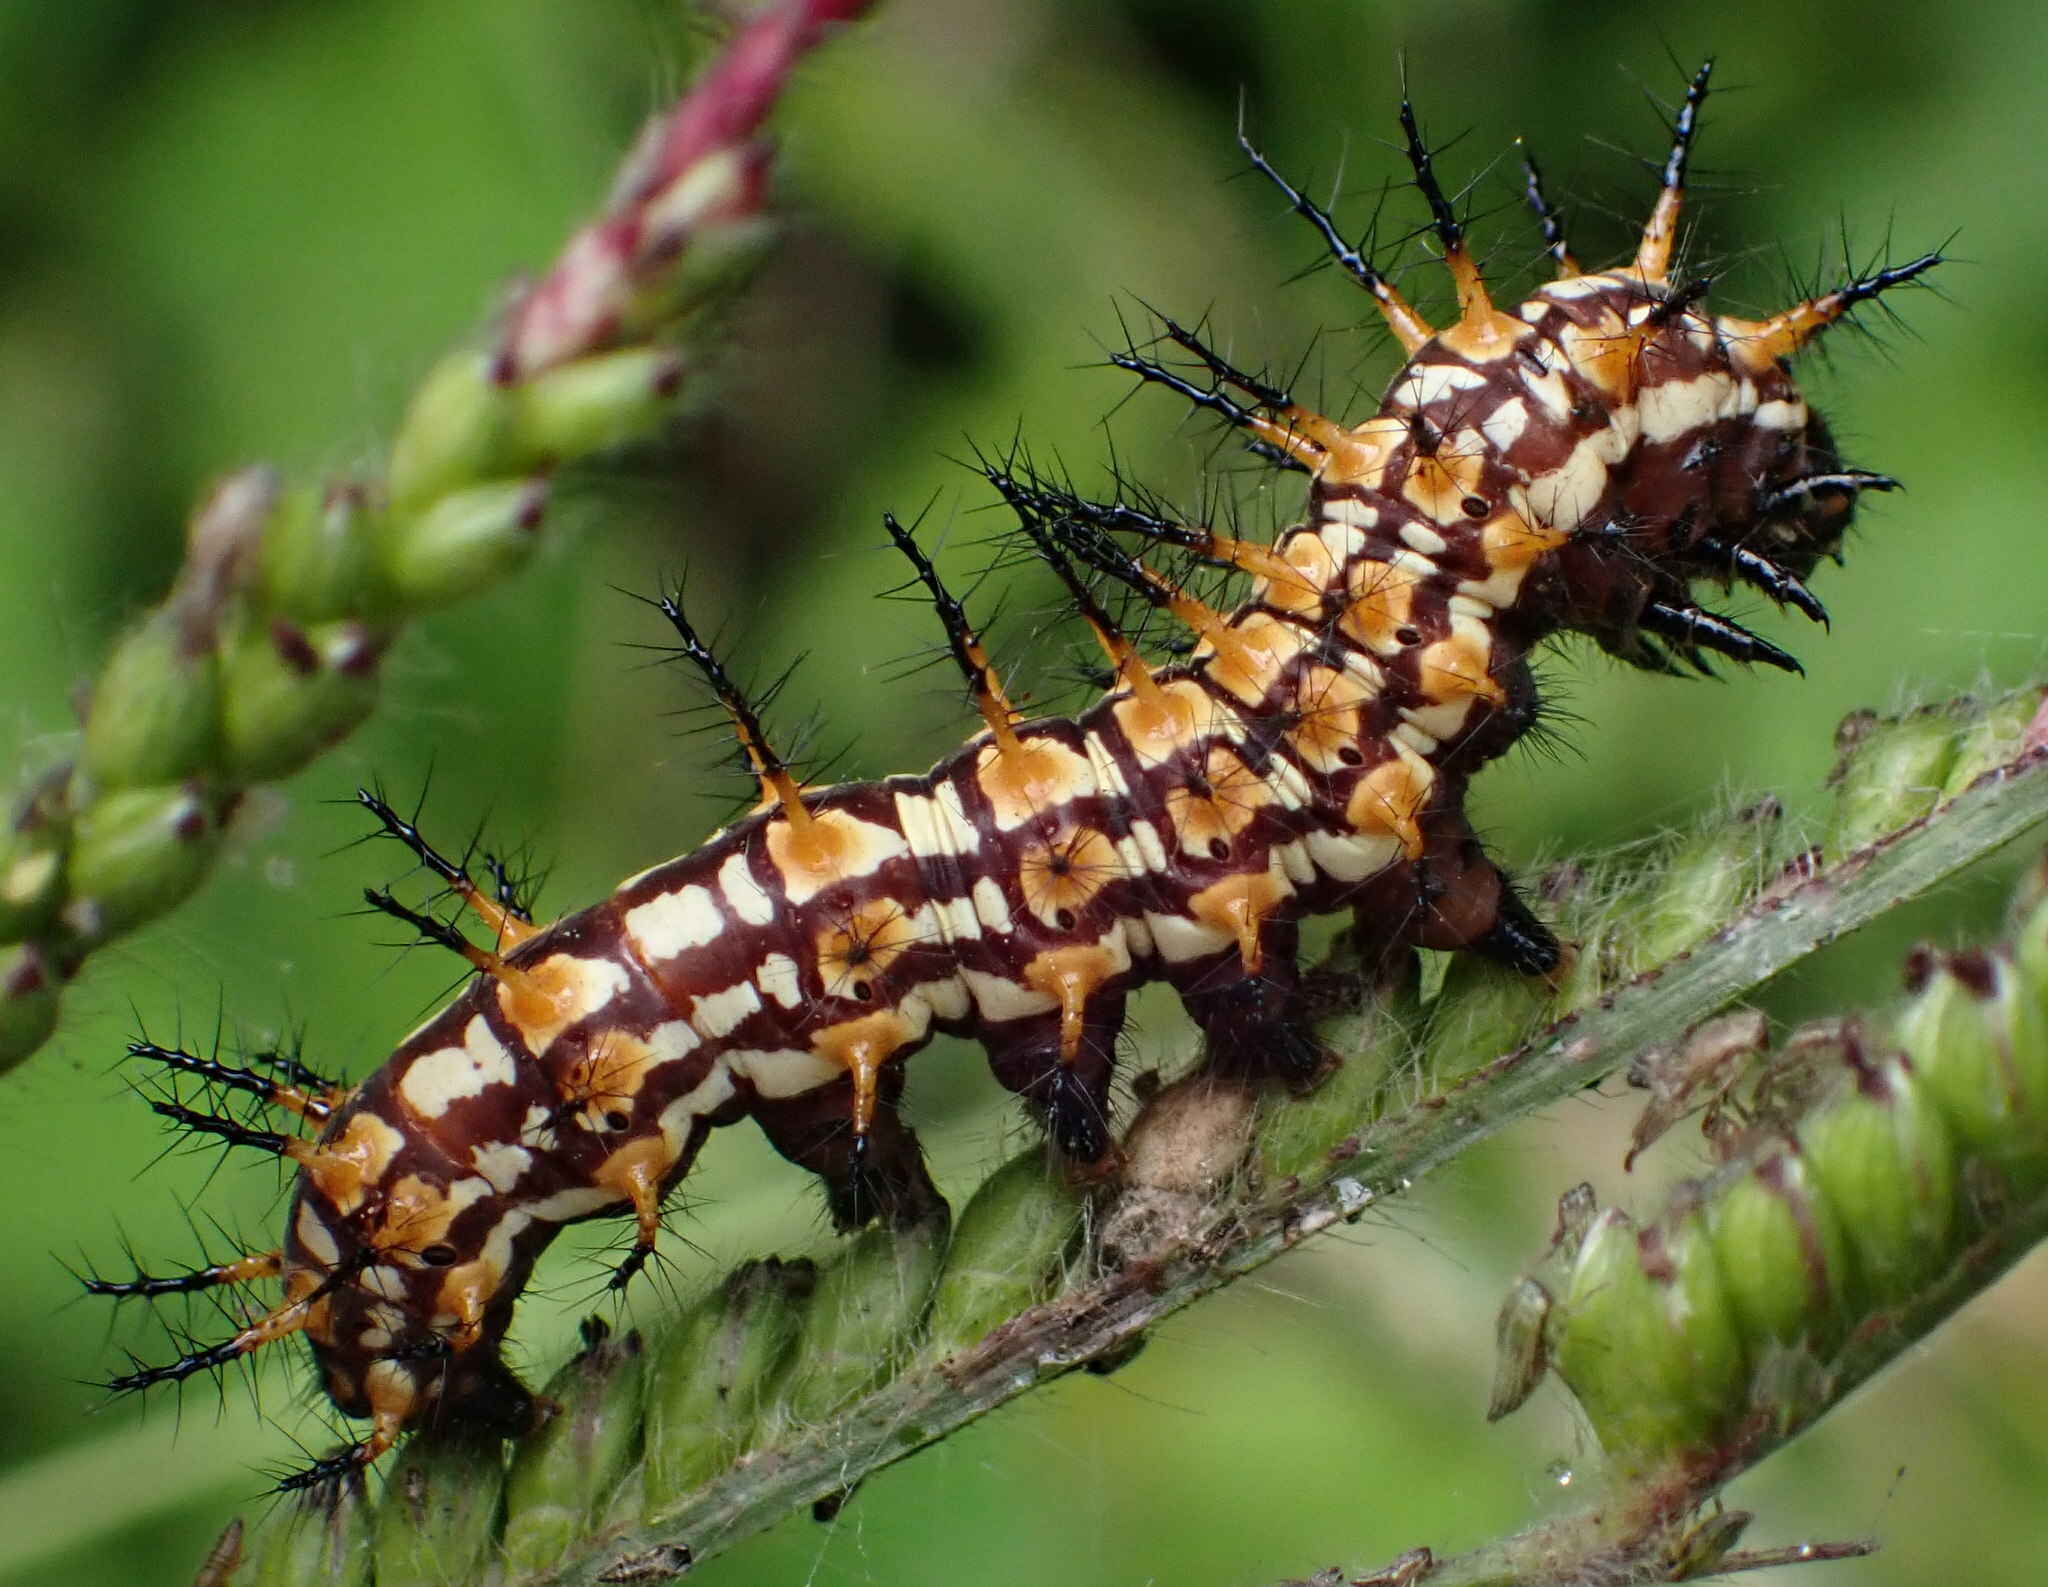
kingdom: Animalia
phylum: Arthropoda
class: Insecta
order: Lepidoptera
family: Nymphalidae
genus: Acraea
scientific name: Acraea Telchinia issoria
